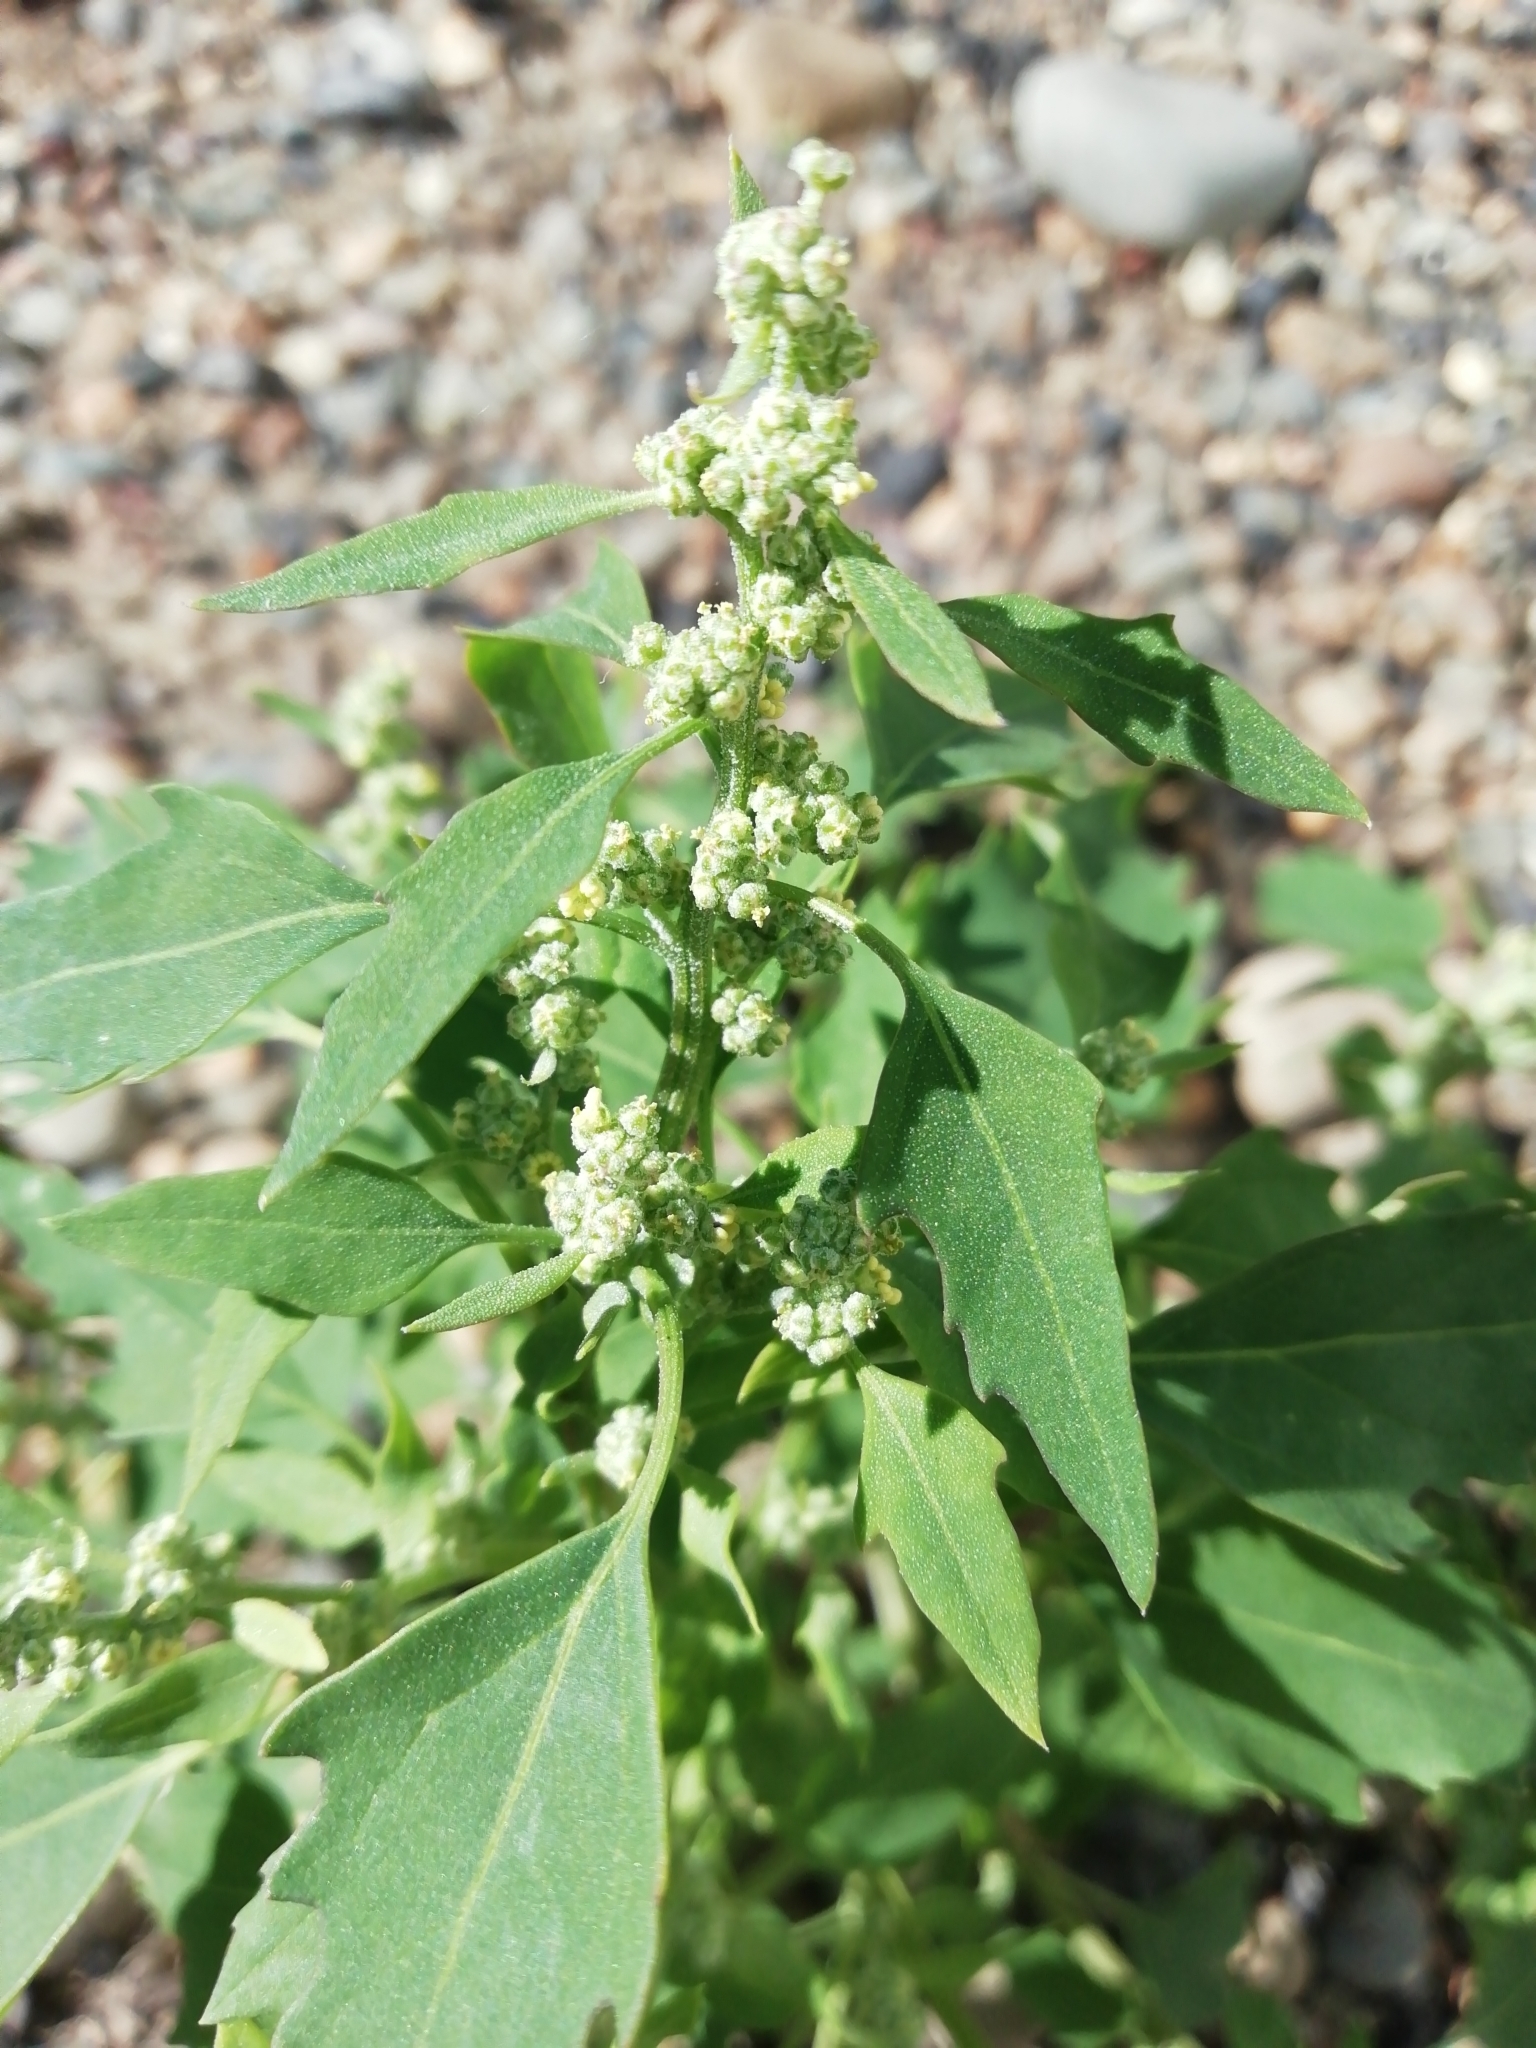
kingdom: Plantae
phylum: Tracheophyta
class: Magnoliopsida
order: Caryophyllales
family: Amaranthaceae
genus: Chenopodium
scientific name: Chenopodium album
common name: Fat-hen
